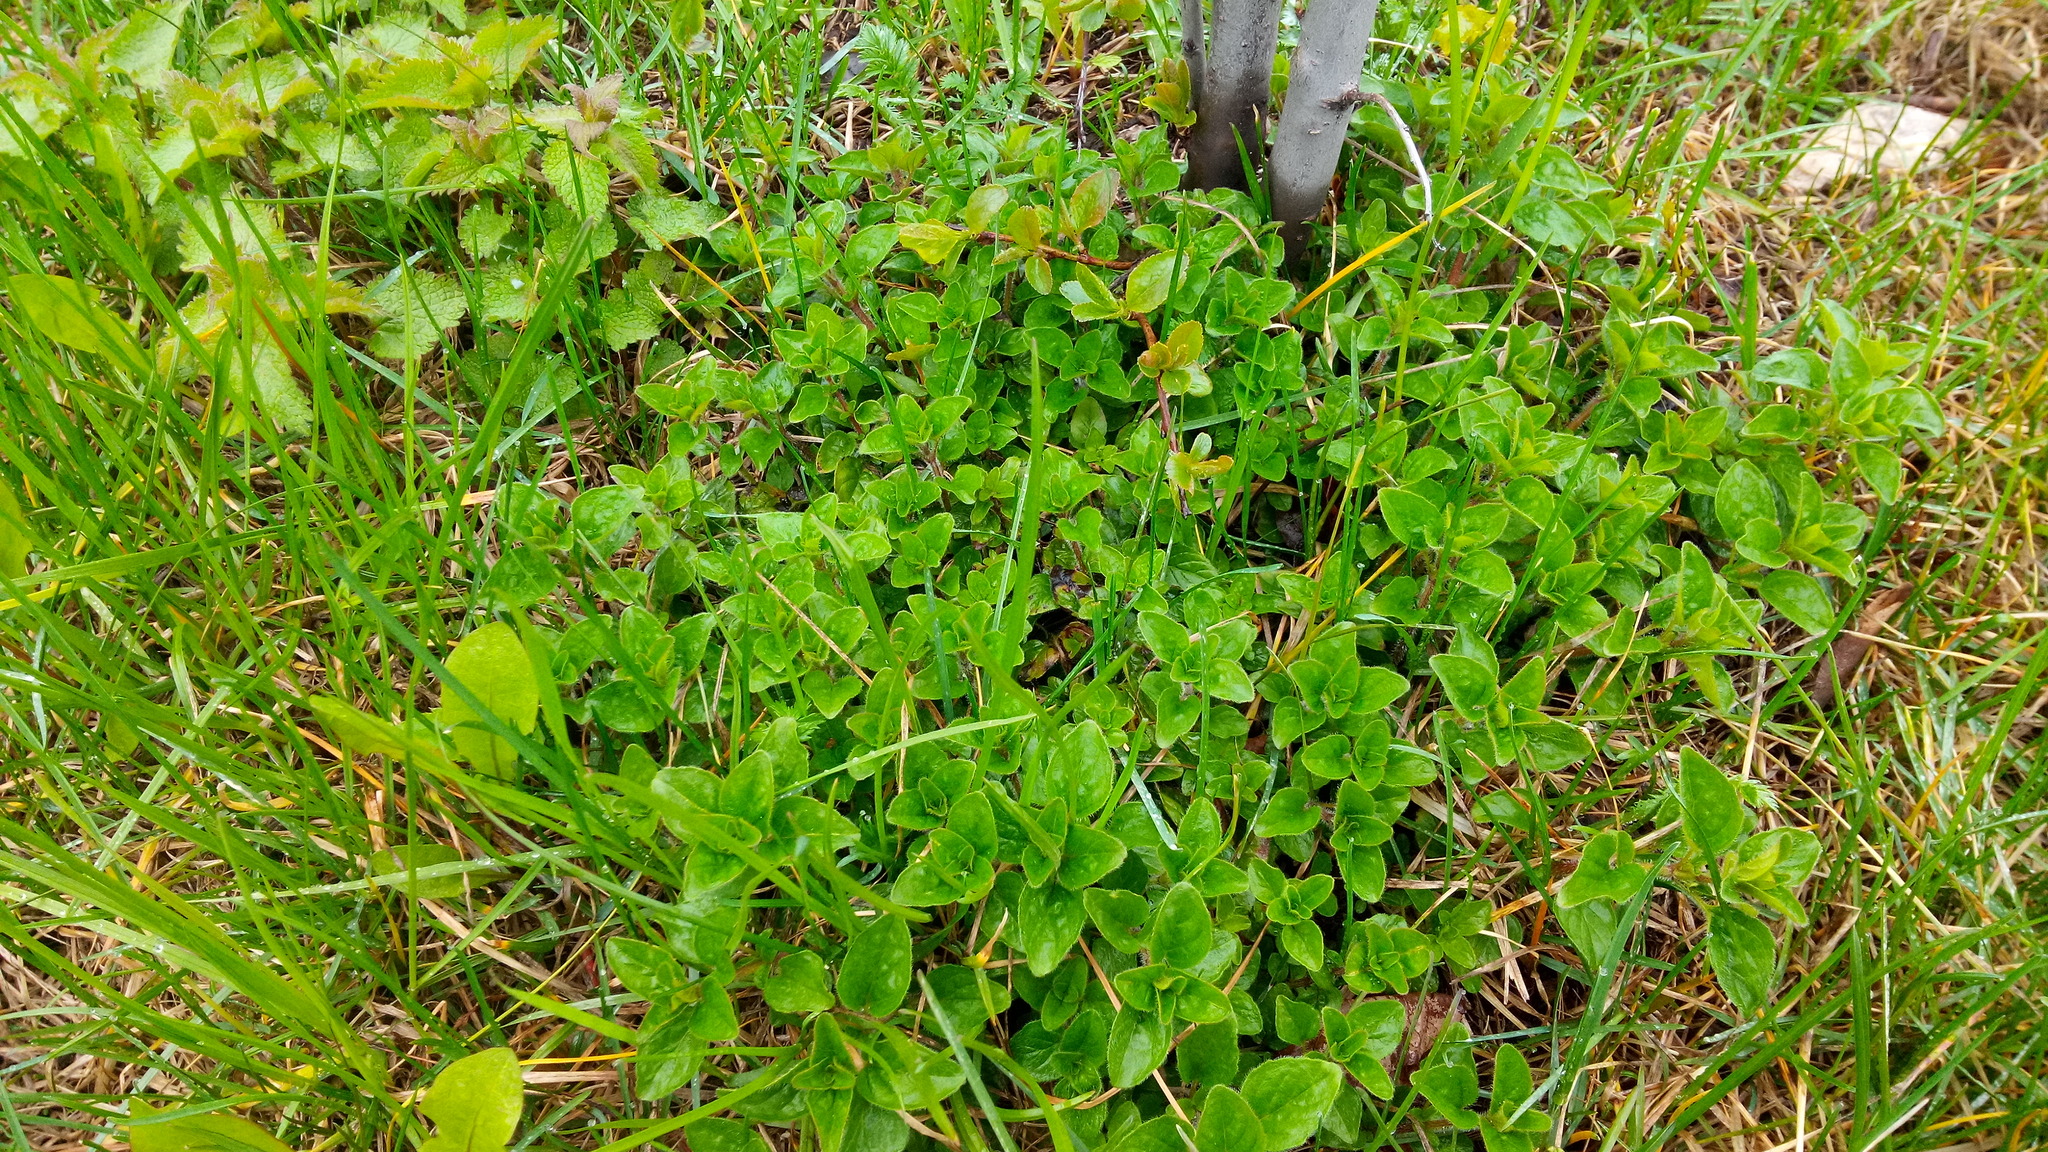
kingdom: Plantae
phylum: Tracheophyta
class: Magnoliopsida
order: Lamiales
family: Lamiaceae
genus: Origanum
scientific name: Origanum vulgare
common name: Wild marjoram
